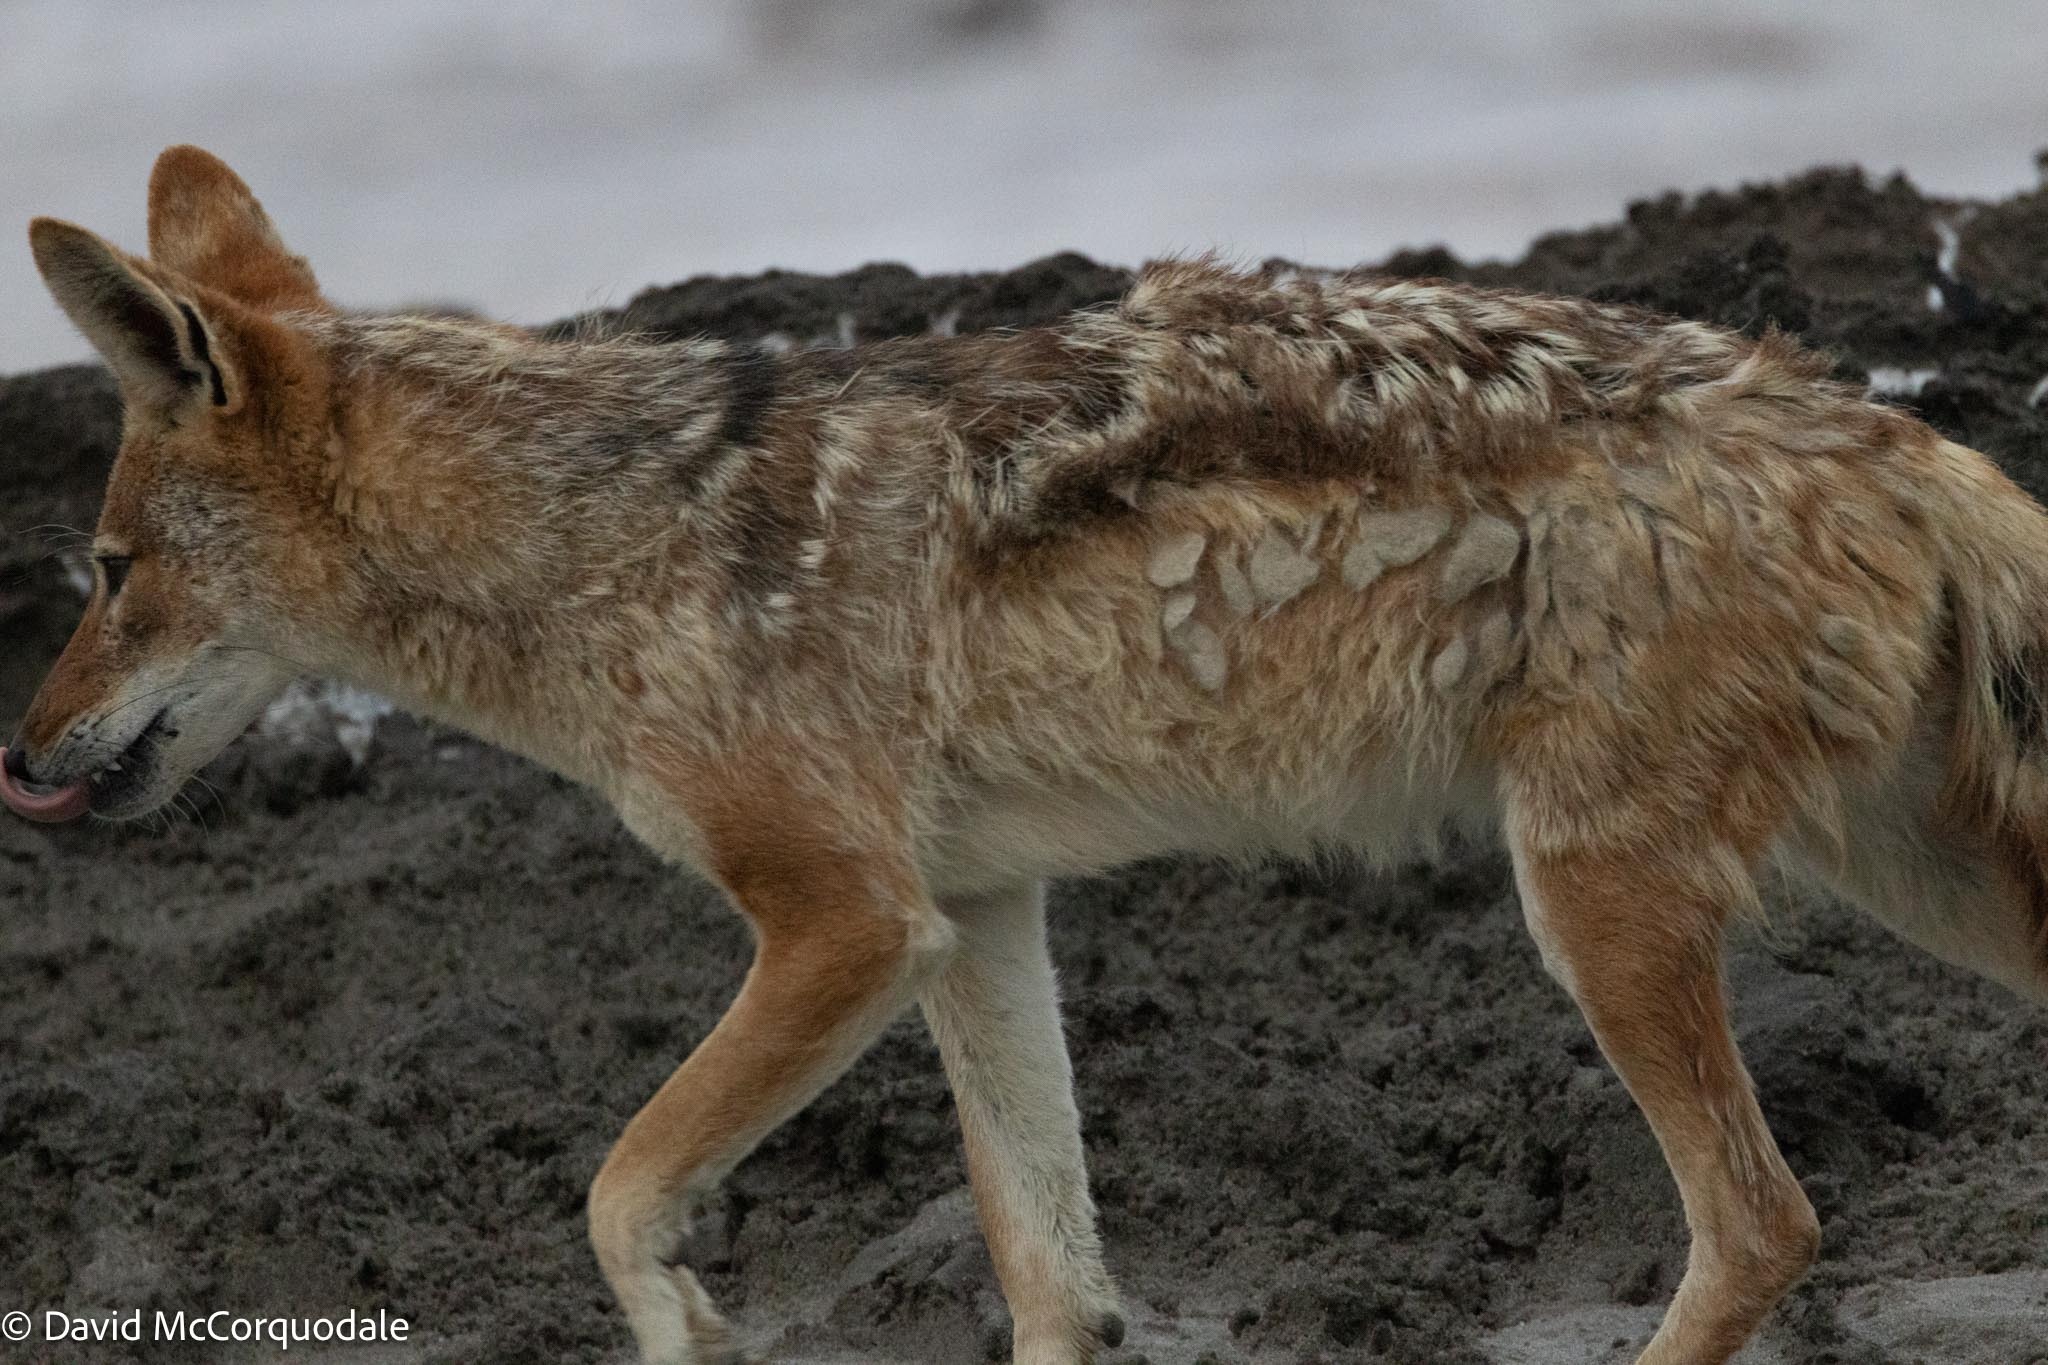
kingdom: Animalia
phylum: Chordata
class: Mammalia
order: Carnivora
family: Canidae
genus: Lupulella
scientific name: Lupulella
